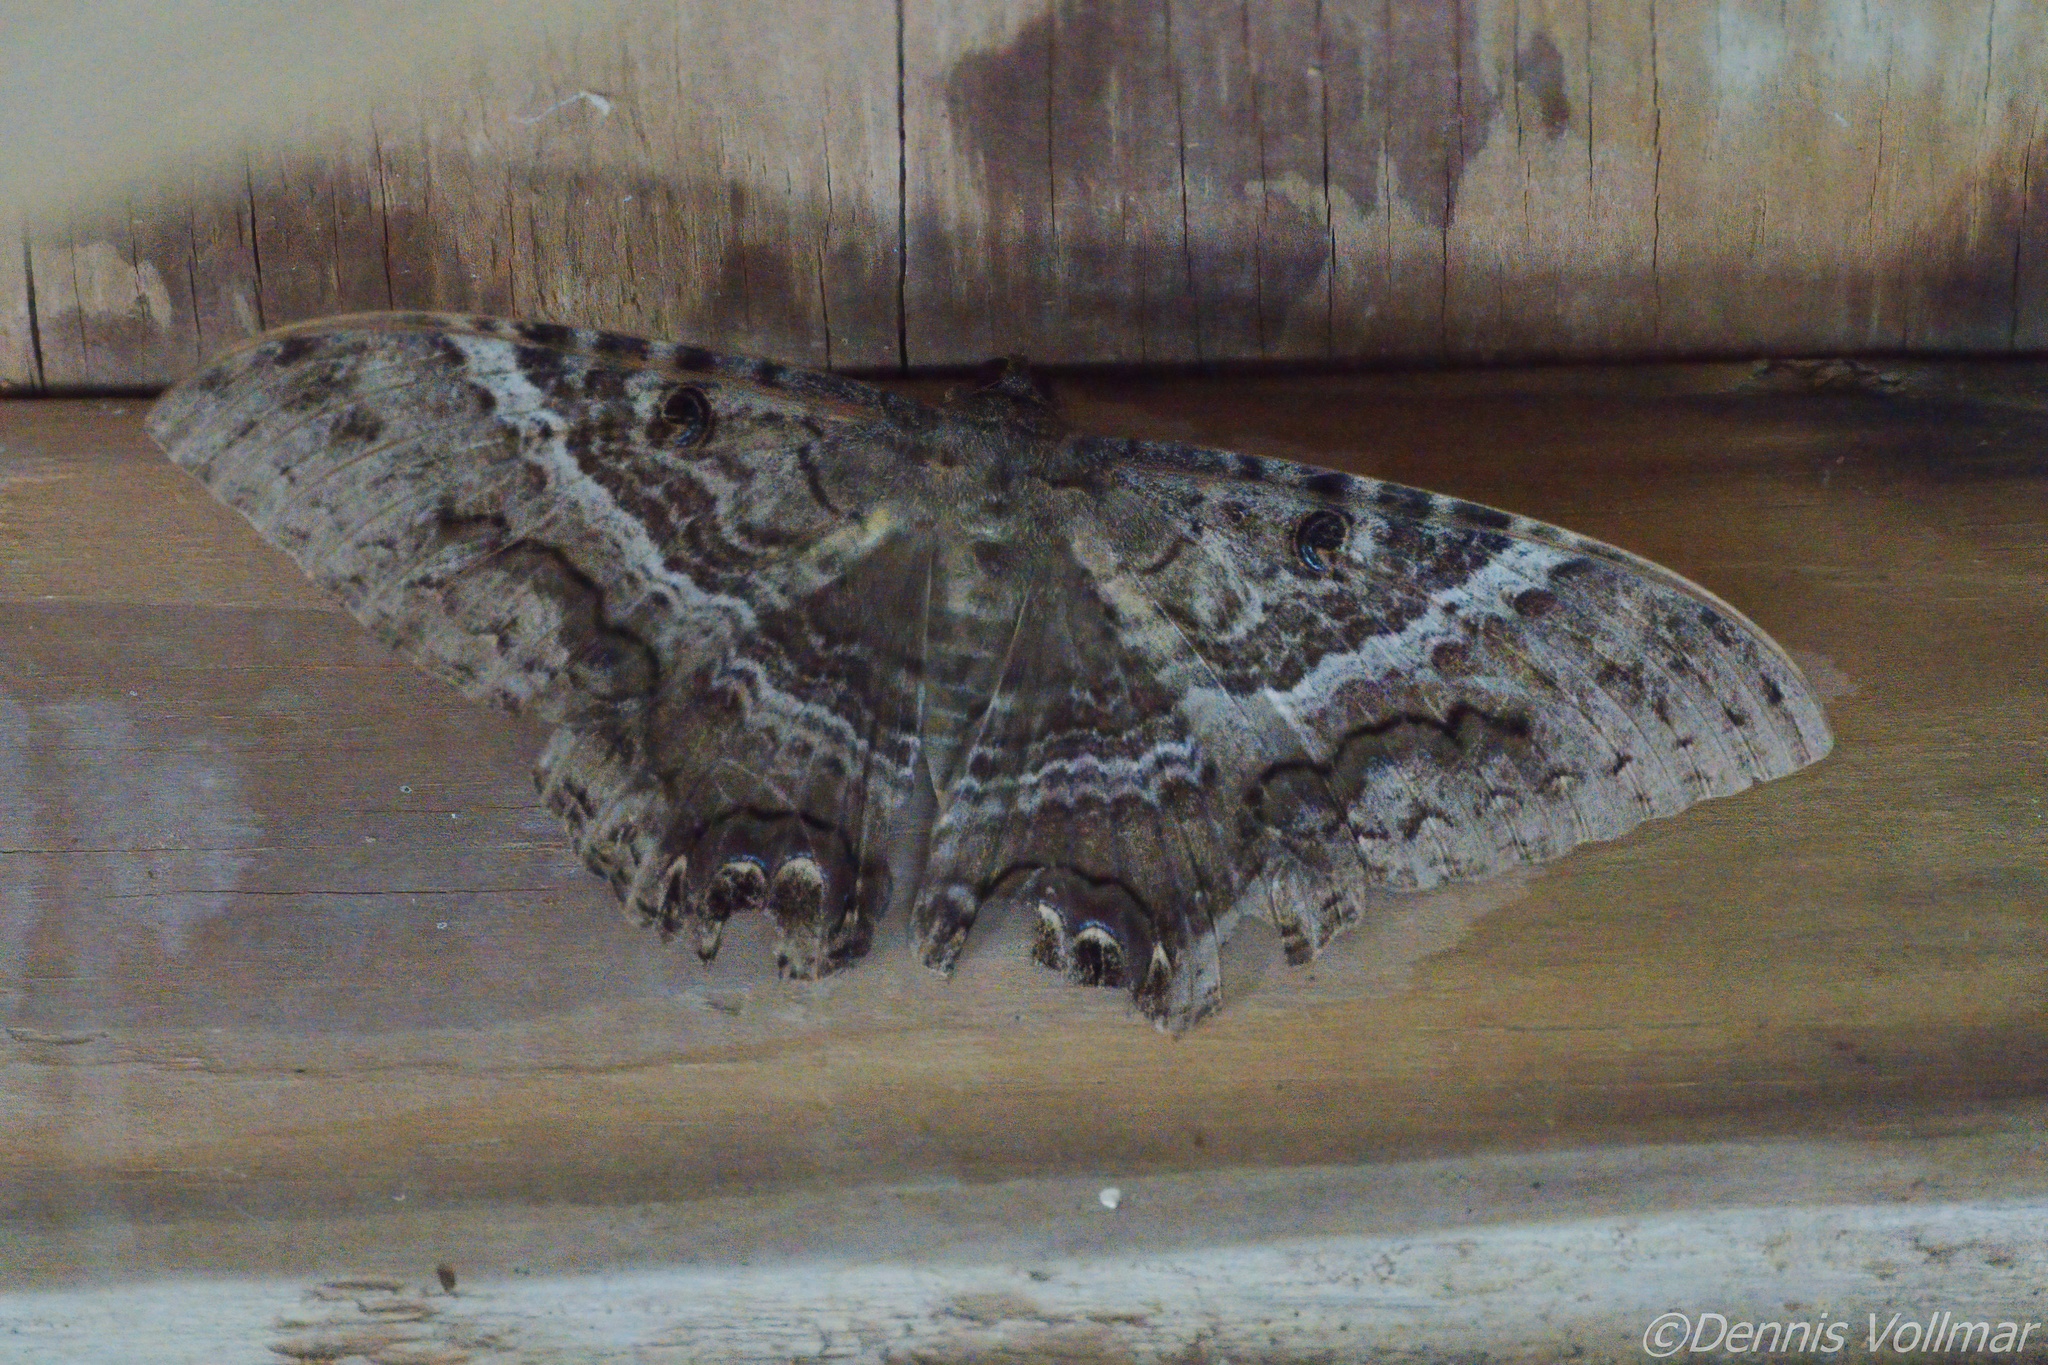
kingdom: Animalia
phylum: Arthropoda
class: Insecta
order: Lepidoptera
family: Erebidae
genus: Ascalapha
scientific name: Ascalapha odorata
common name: Black witch
